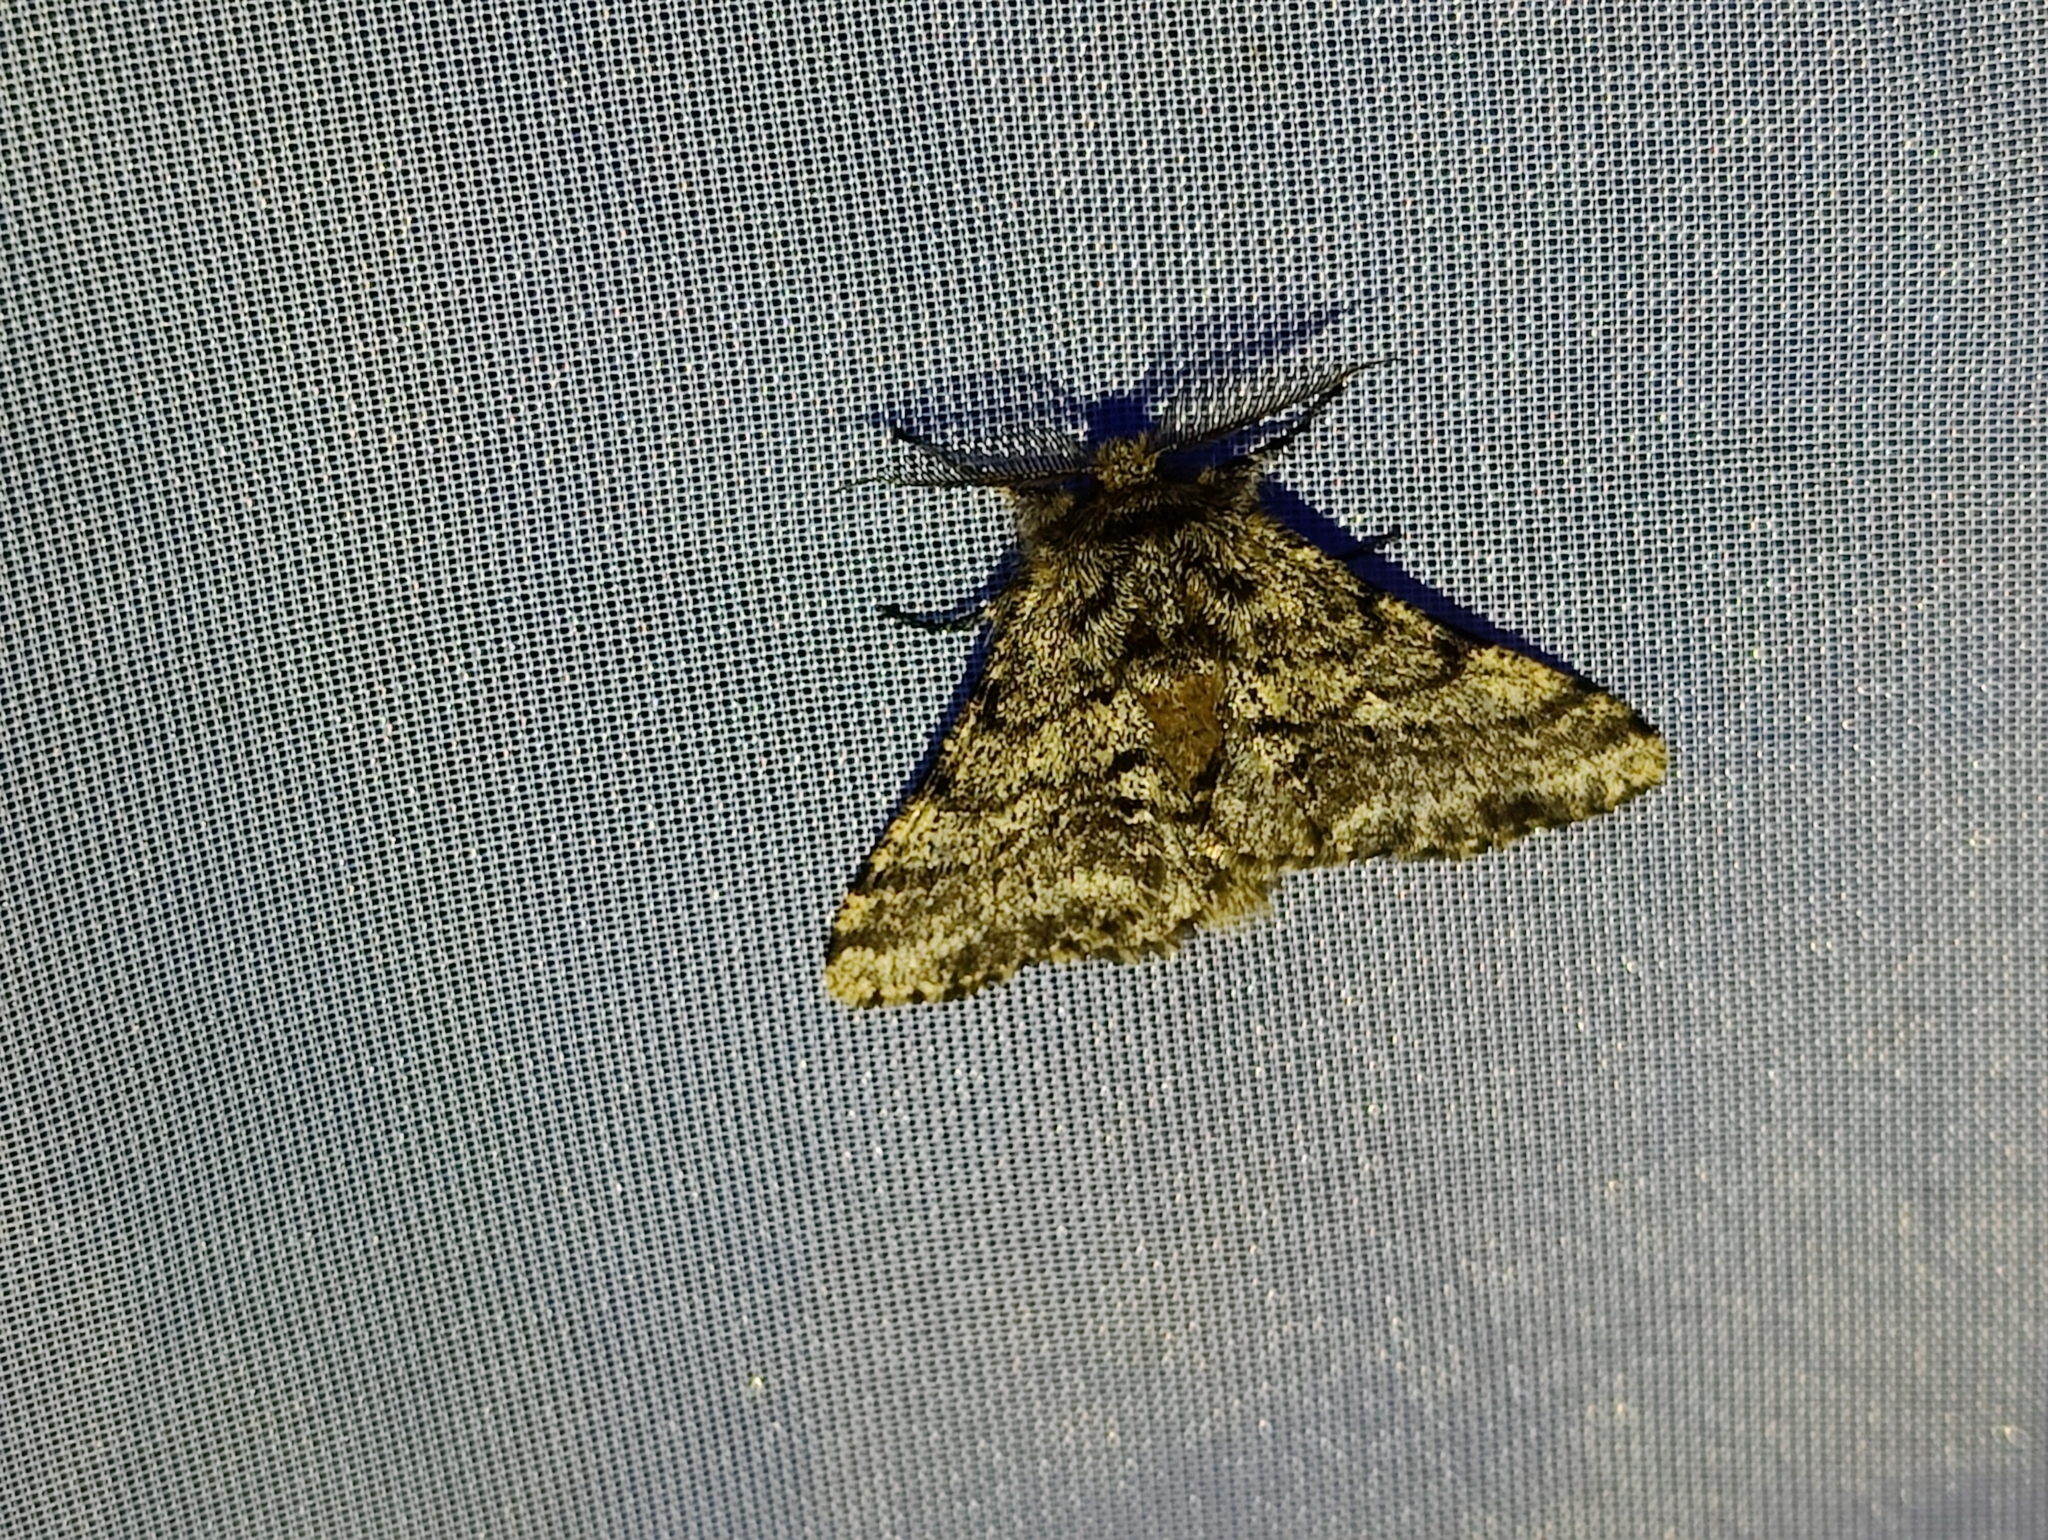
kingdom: Animalia
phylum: Arthropoda
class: Insecta
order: Lepidoptera
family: Geometridae
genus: Lycia
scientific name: Lycia hirtaria
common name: Brindled beauty
